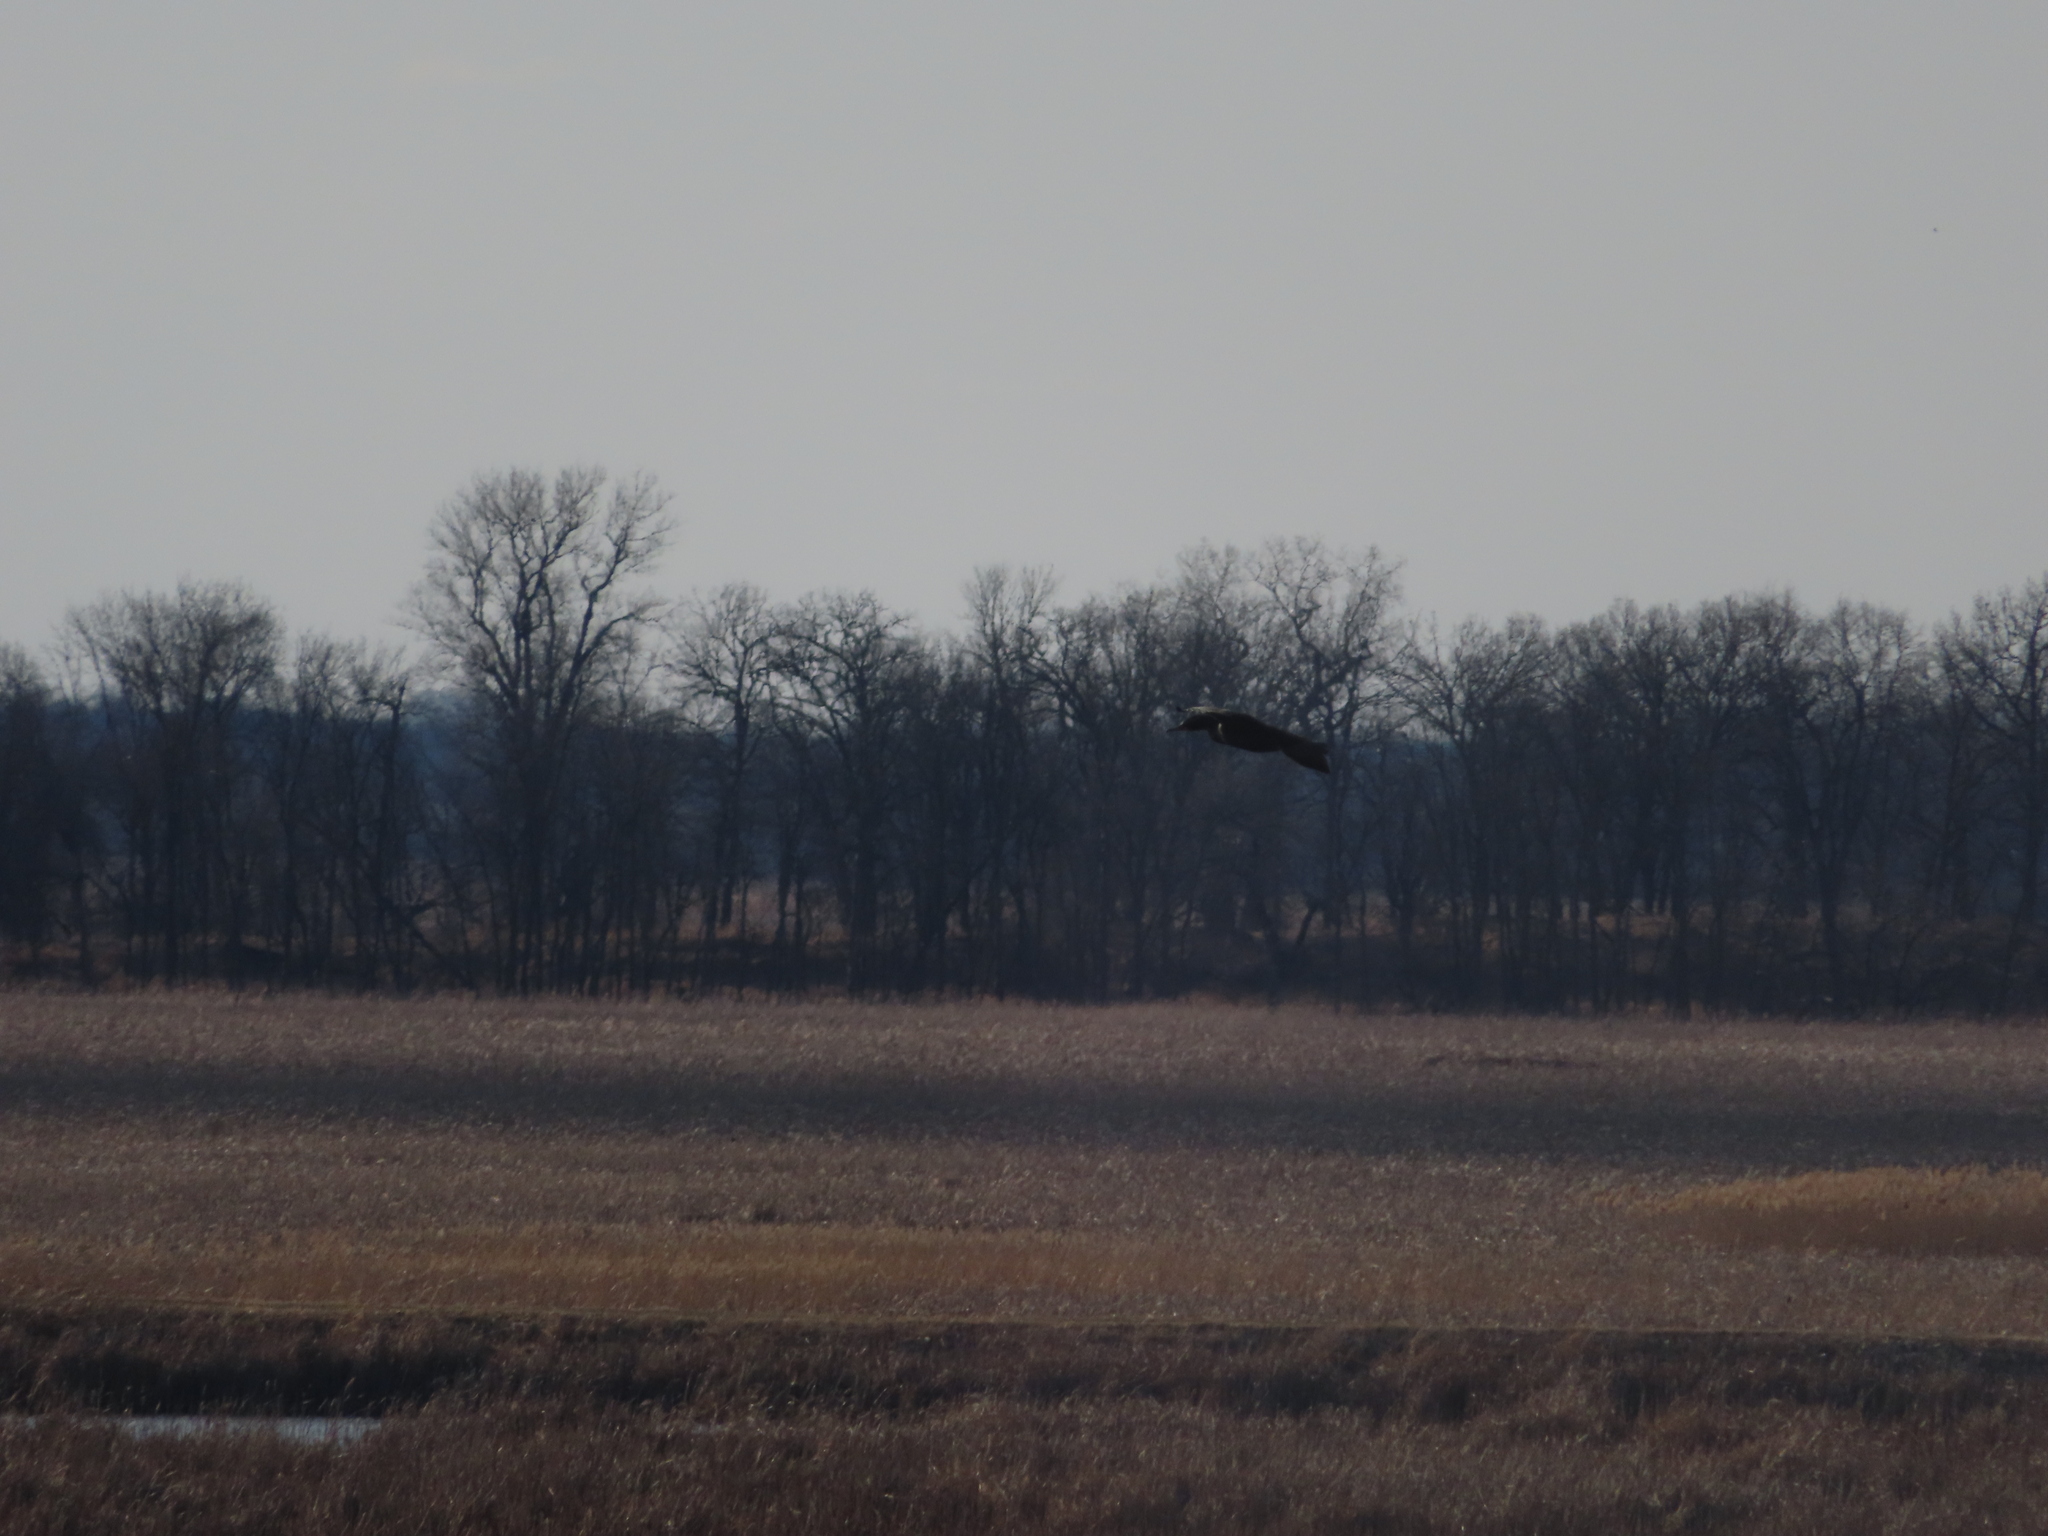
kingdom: Animalia
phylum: Chordata
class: Aves
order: Anseriformes
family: Anatidae
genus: Anas
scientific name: Anas platyrhynchos
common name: Mallard
